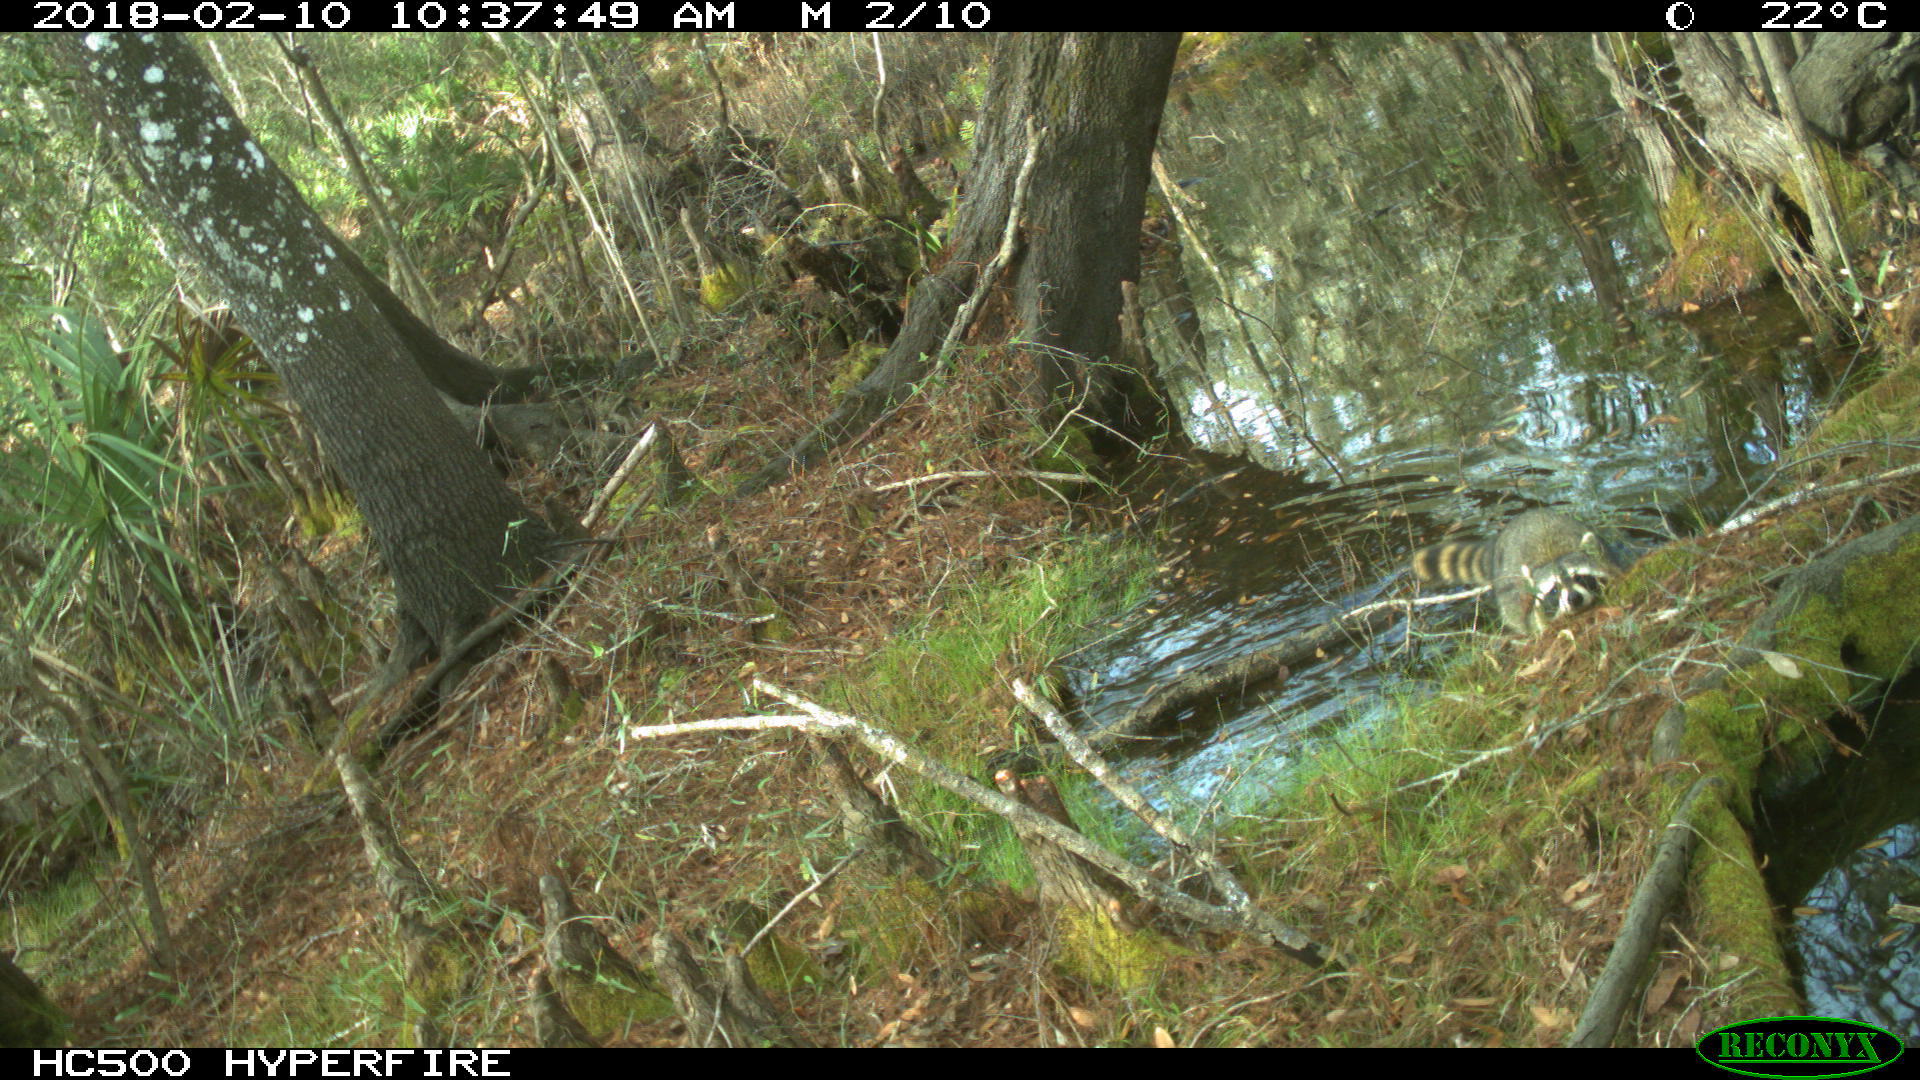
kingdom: Animalia
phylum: Chordata
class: Mammalia
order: Carnivora
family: Procyonidae
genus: Procyon
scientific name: Procyon lotor
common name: Raccoon
